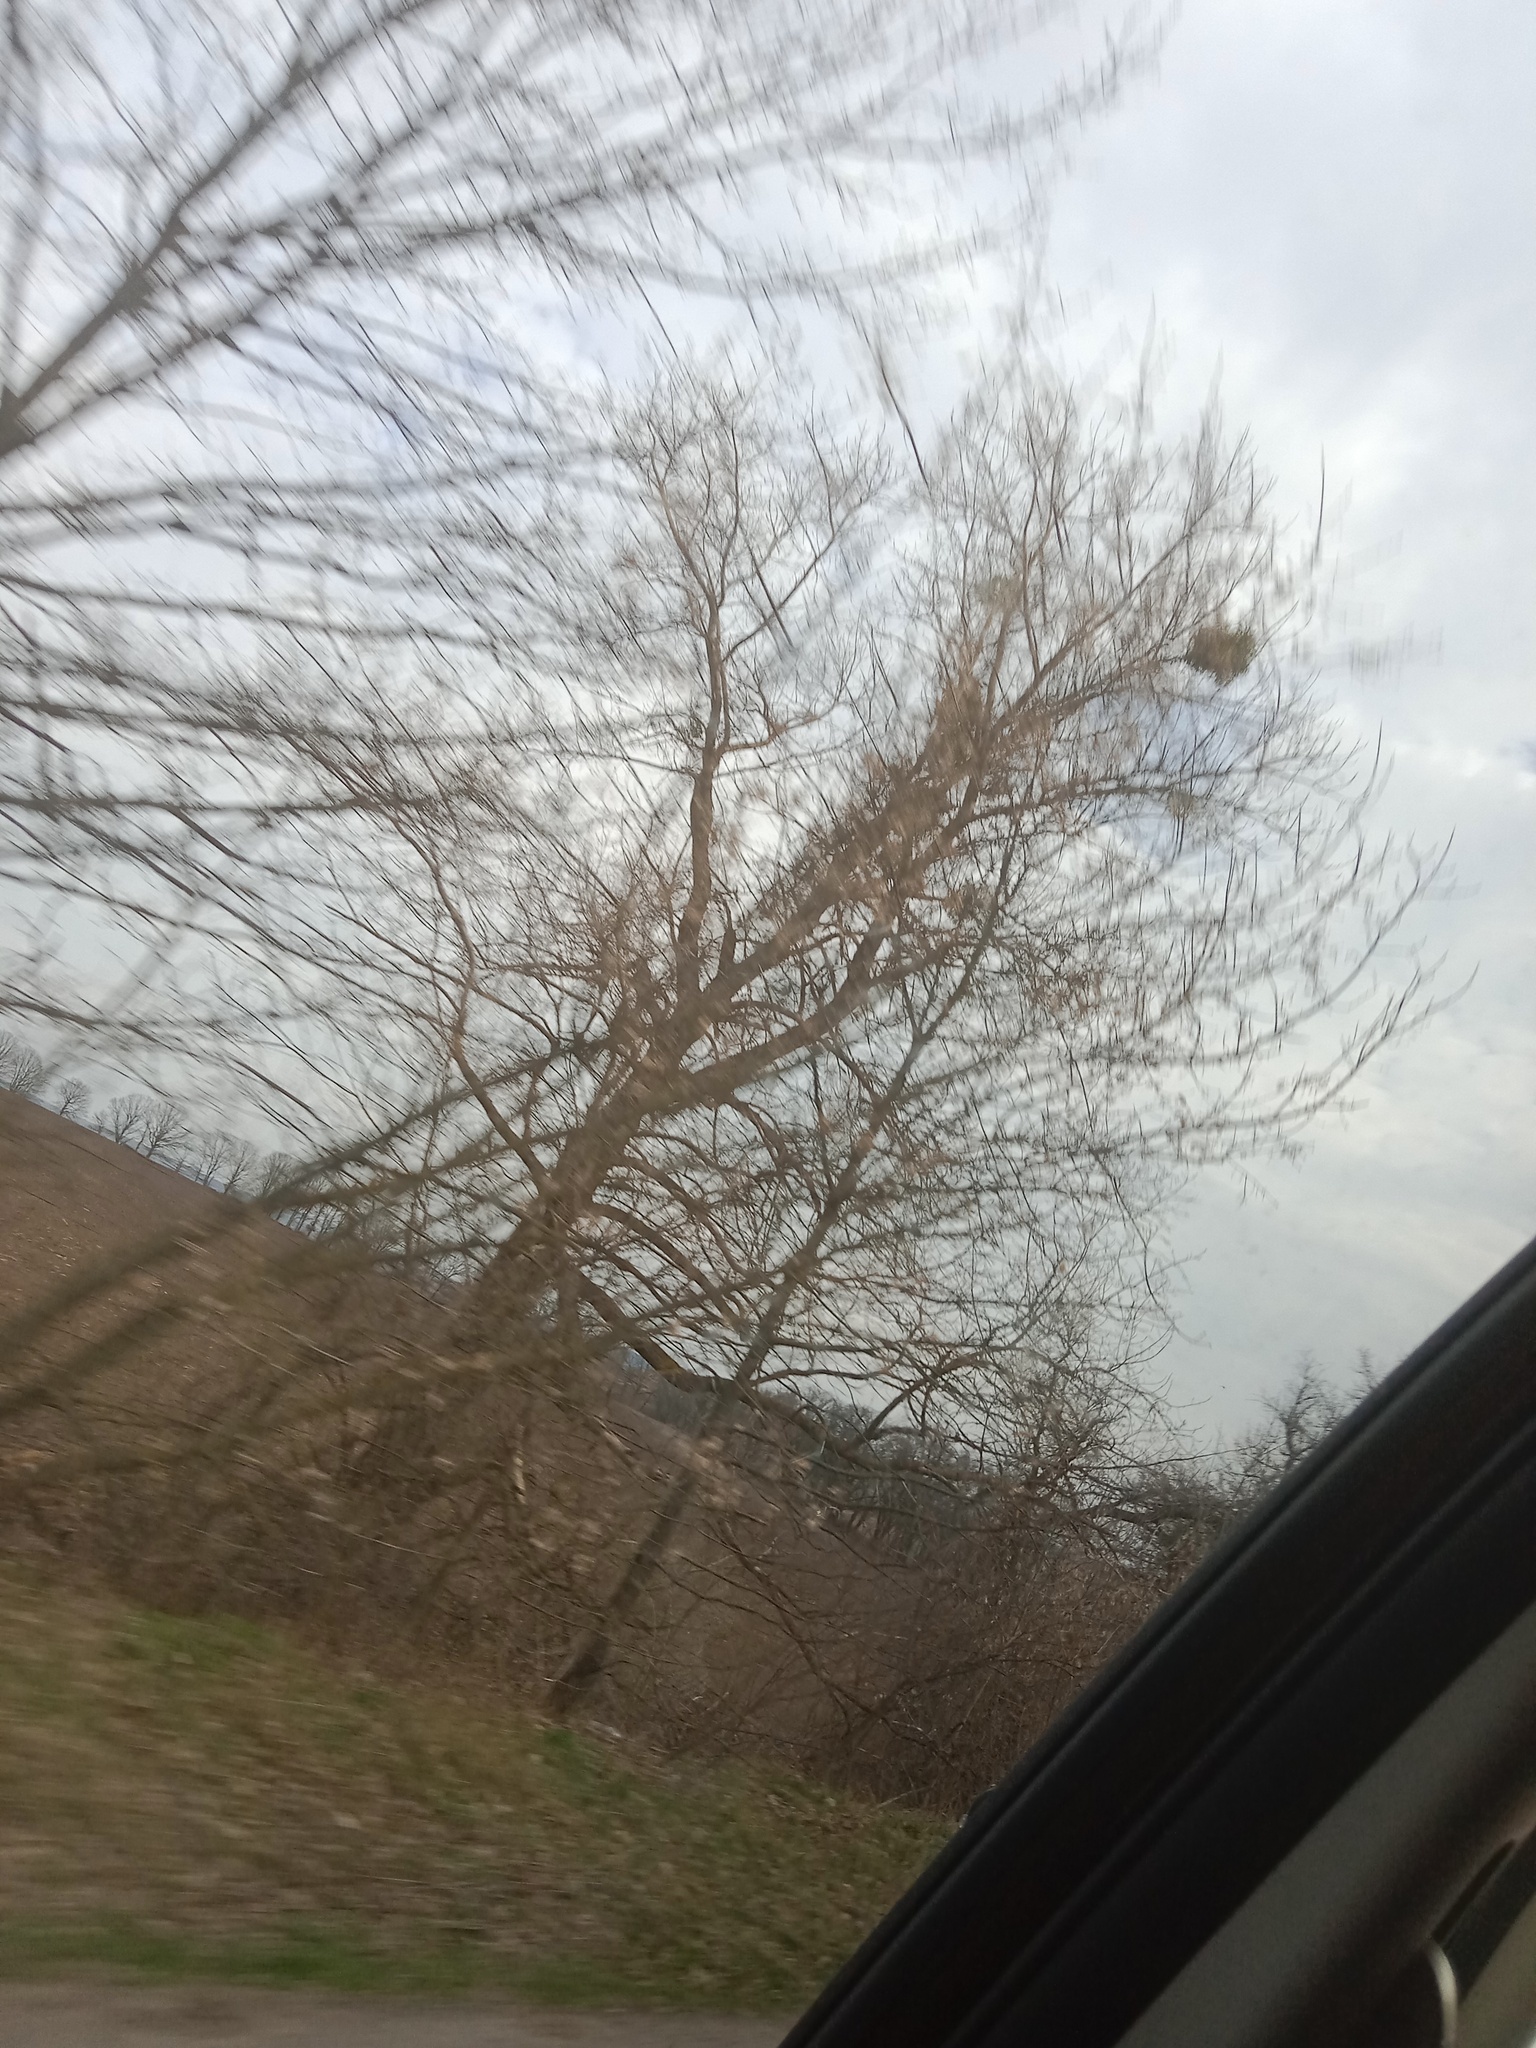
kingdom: Plantae
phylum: Tracheophyta
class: Magnoliopsida
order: Santalales
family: Viscaceae
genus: Viscum
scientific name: Viscum album
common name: Mistletoe
